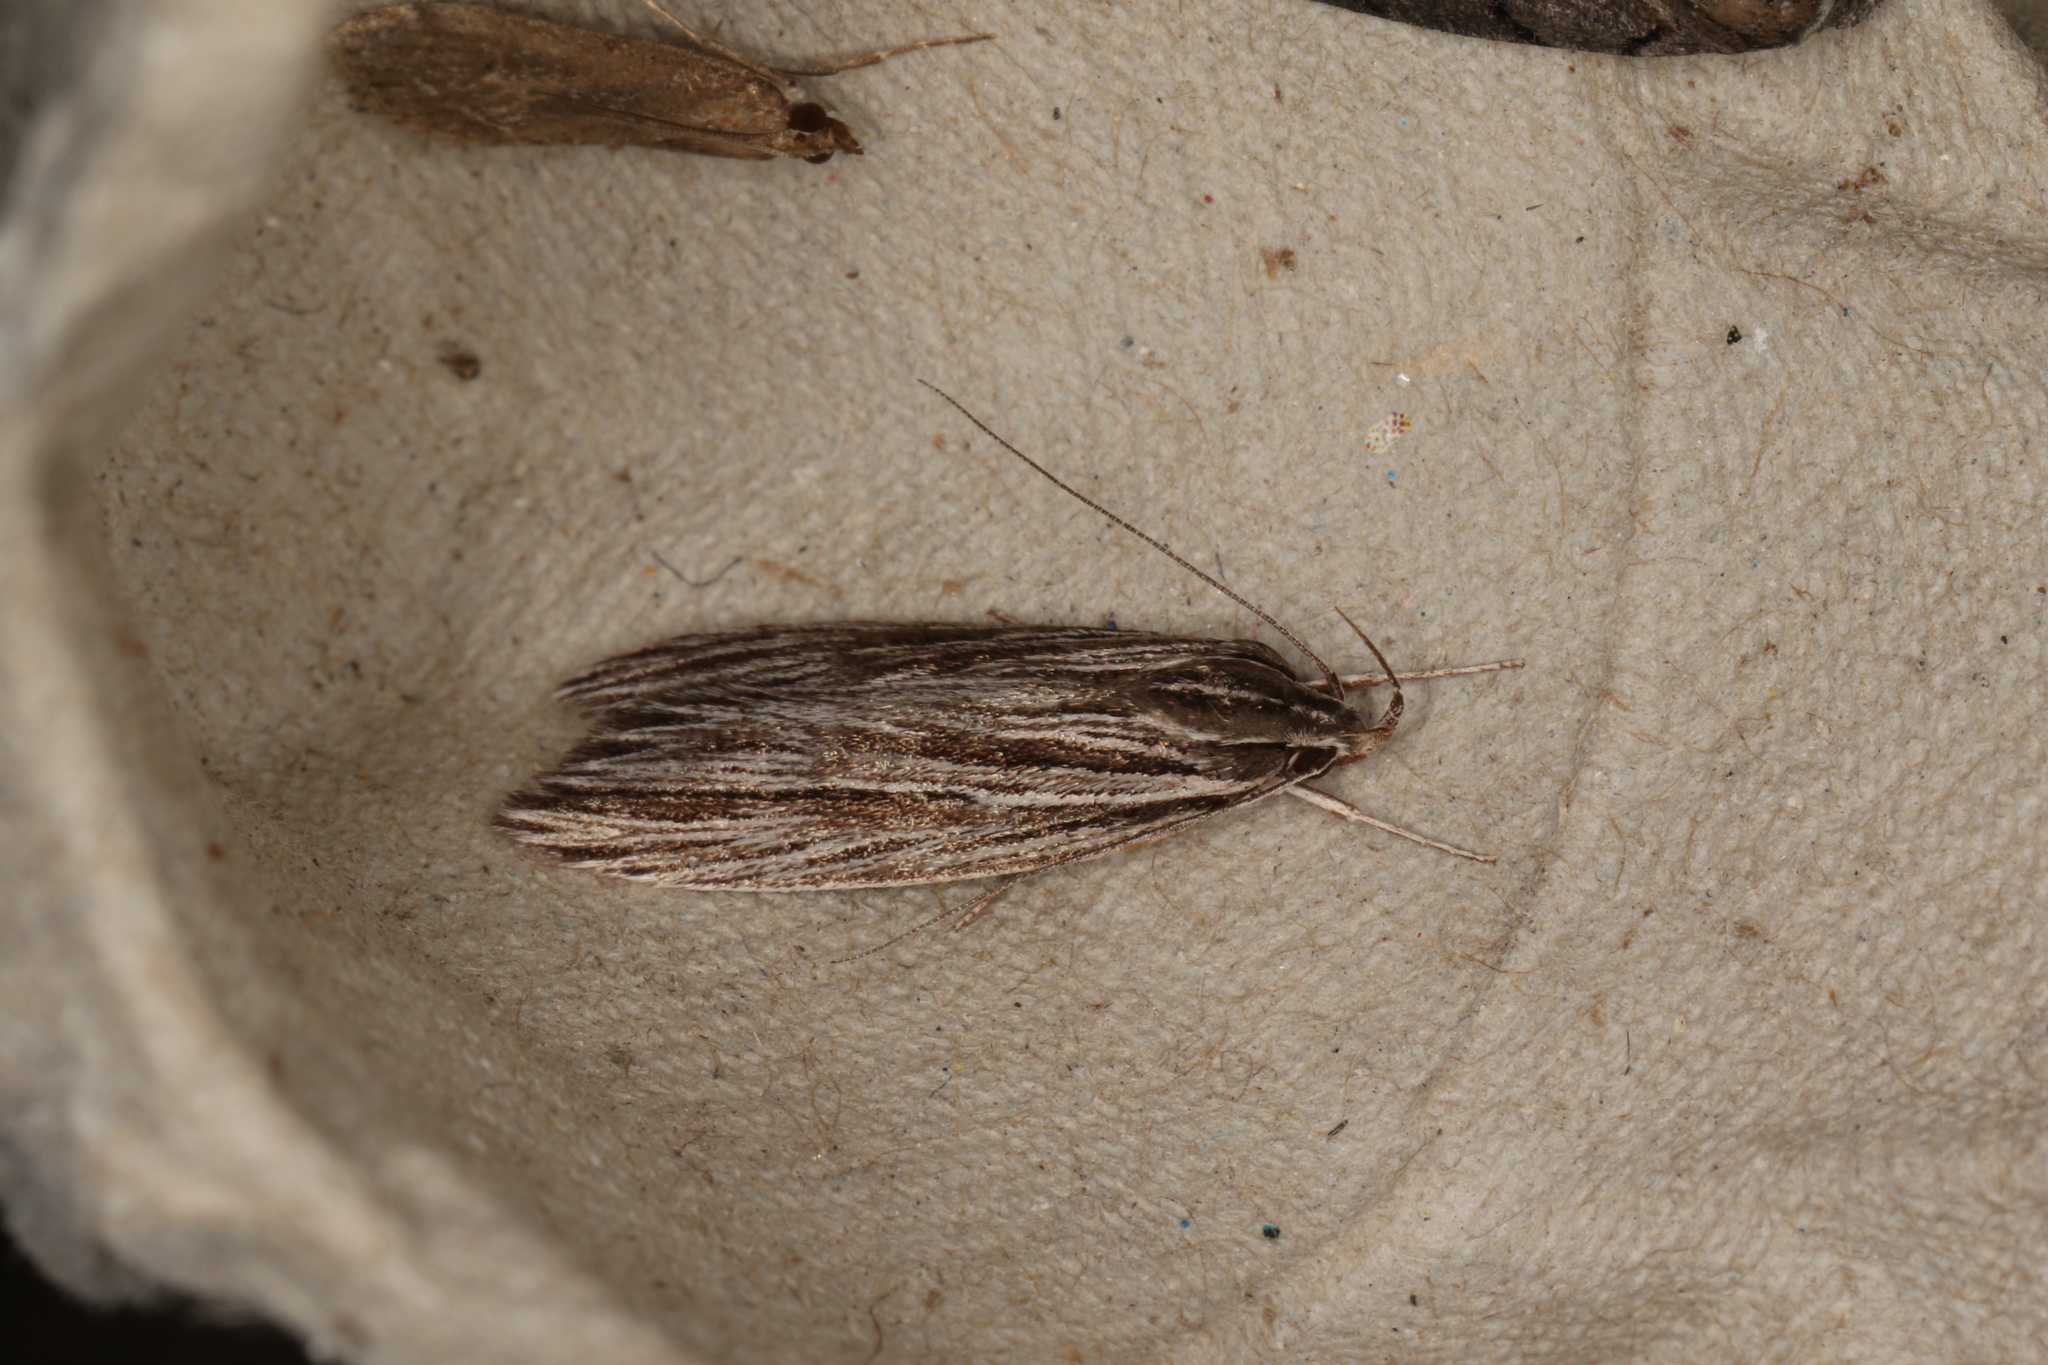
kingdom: Animalia
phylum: Arthropoda
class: Insecta
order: Lepidoptera
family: Xyloryctidae
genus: Leistarcha
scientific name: Leistarcha amphigramma
